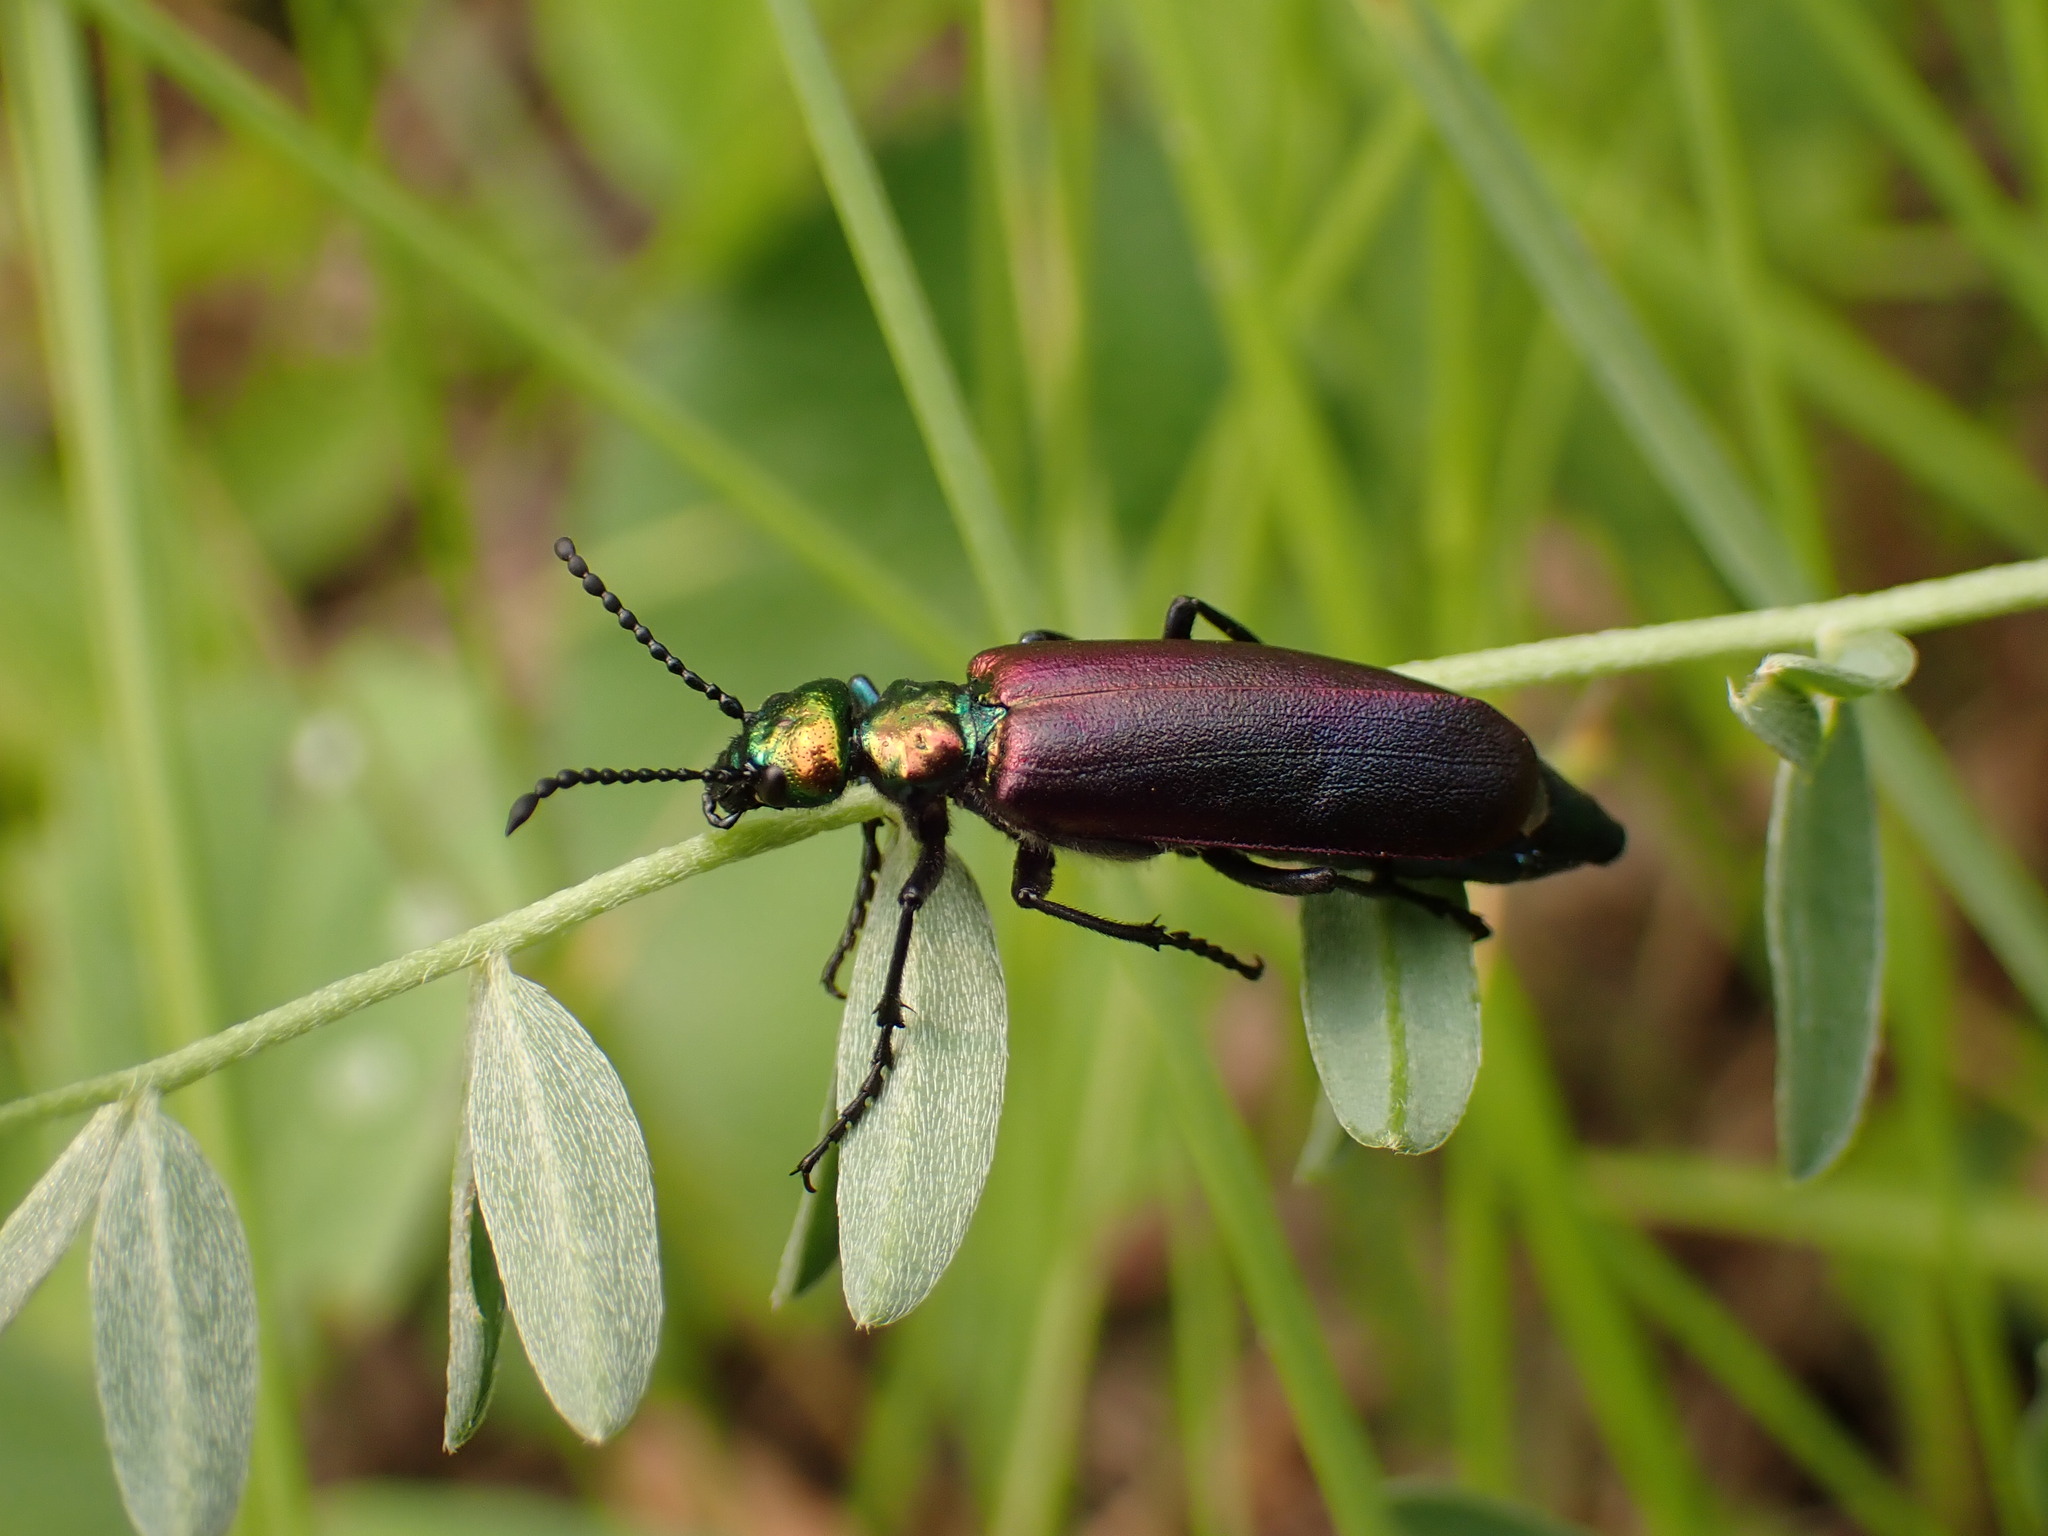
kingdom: Animalia
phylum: Arthropoda
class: Insecta
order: Coleoptera
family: Meloidae
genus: Lytta
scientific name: Lytta nuttallii
